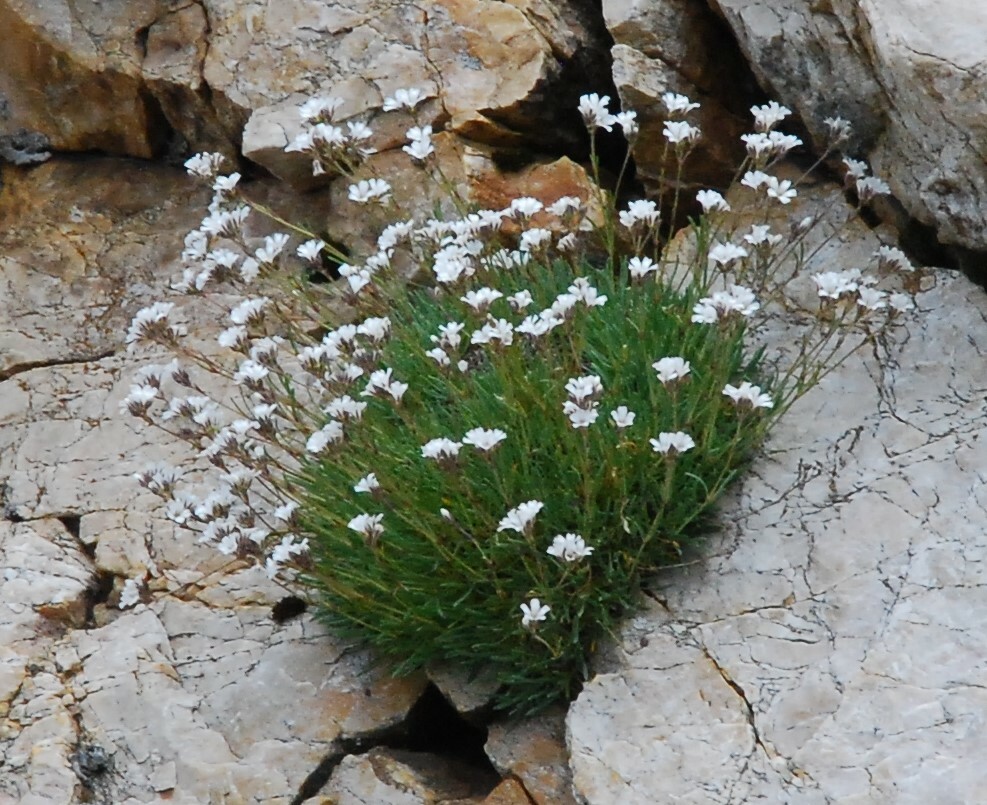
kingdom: Plantae
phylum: Tracheophyta
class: Magnoliopsida
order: Caryophyllales
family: Caryophyllaceae
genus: Gypsophila
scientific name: Gypsophila uralensis
